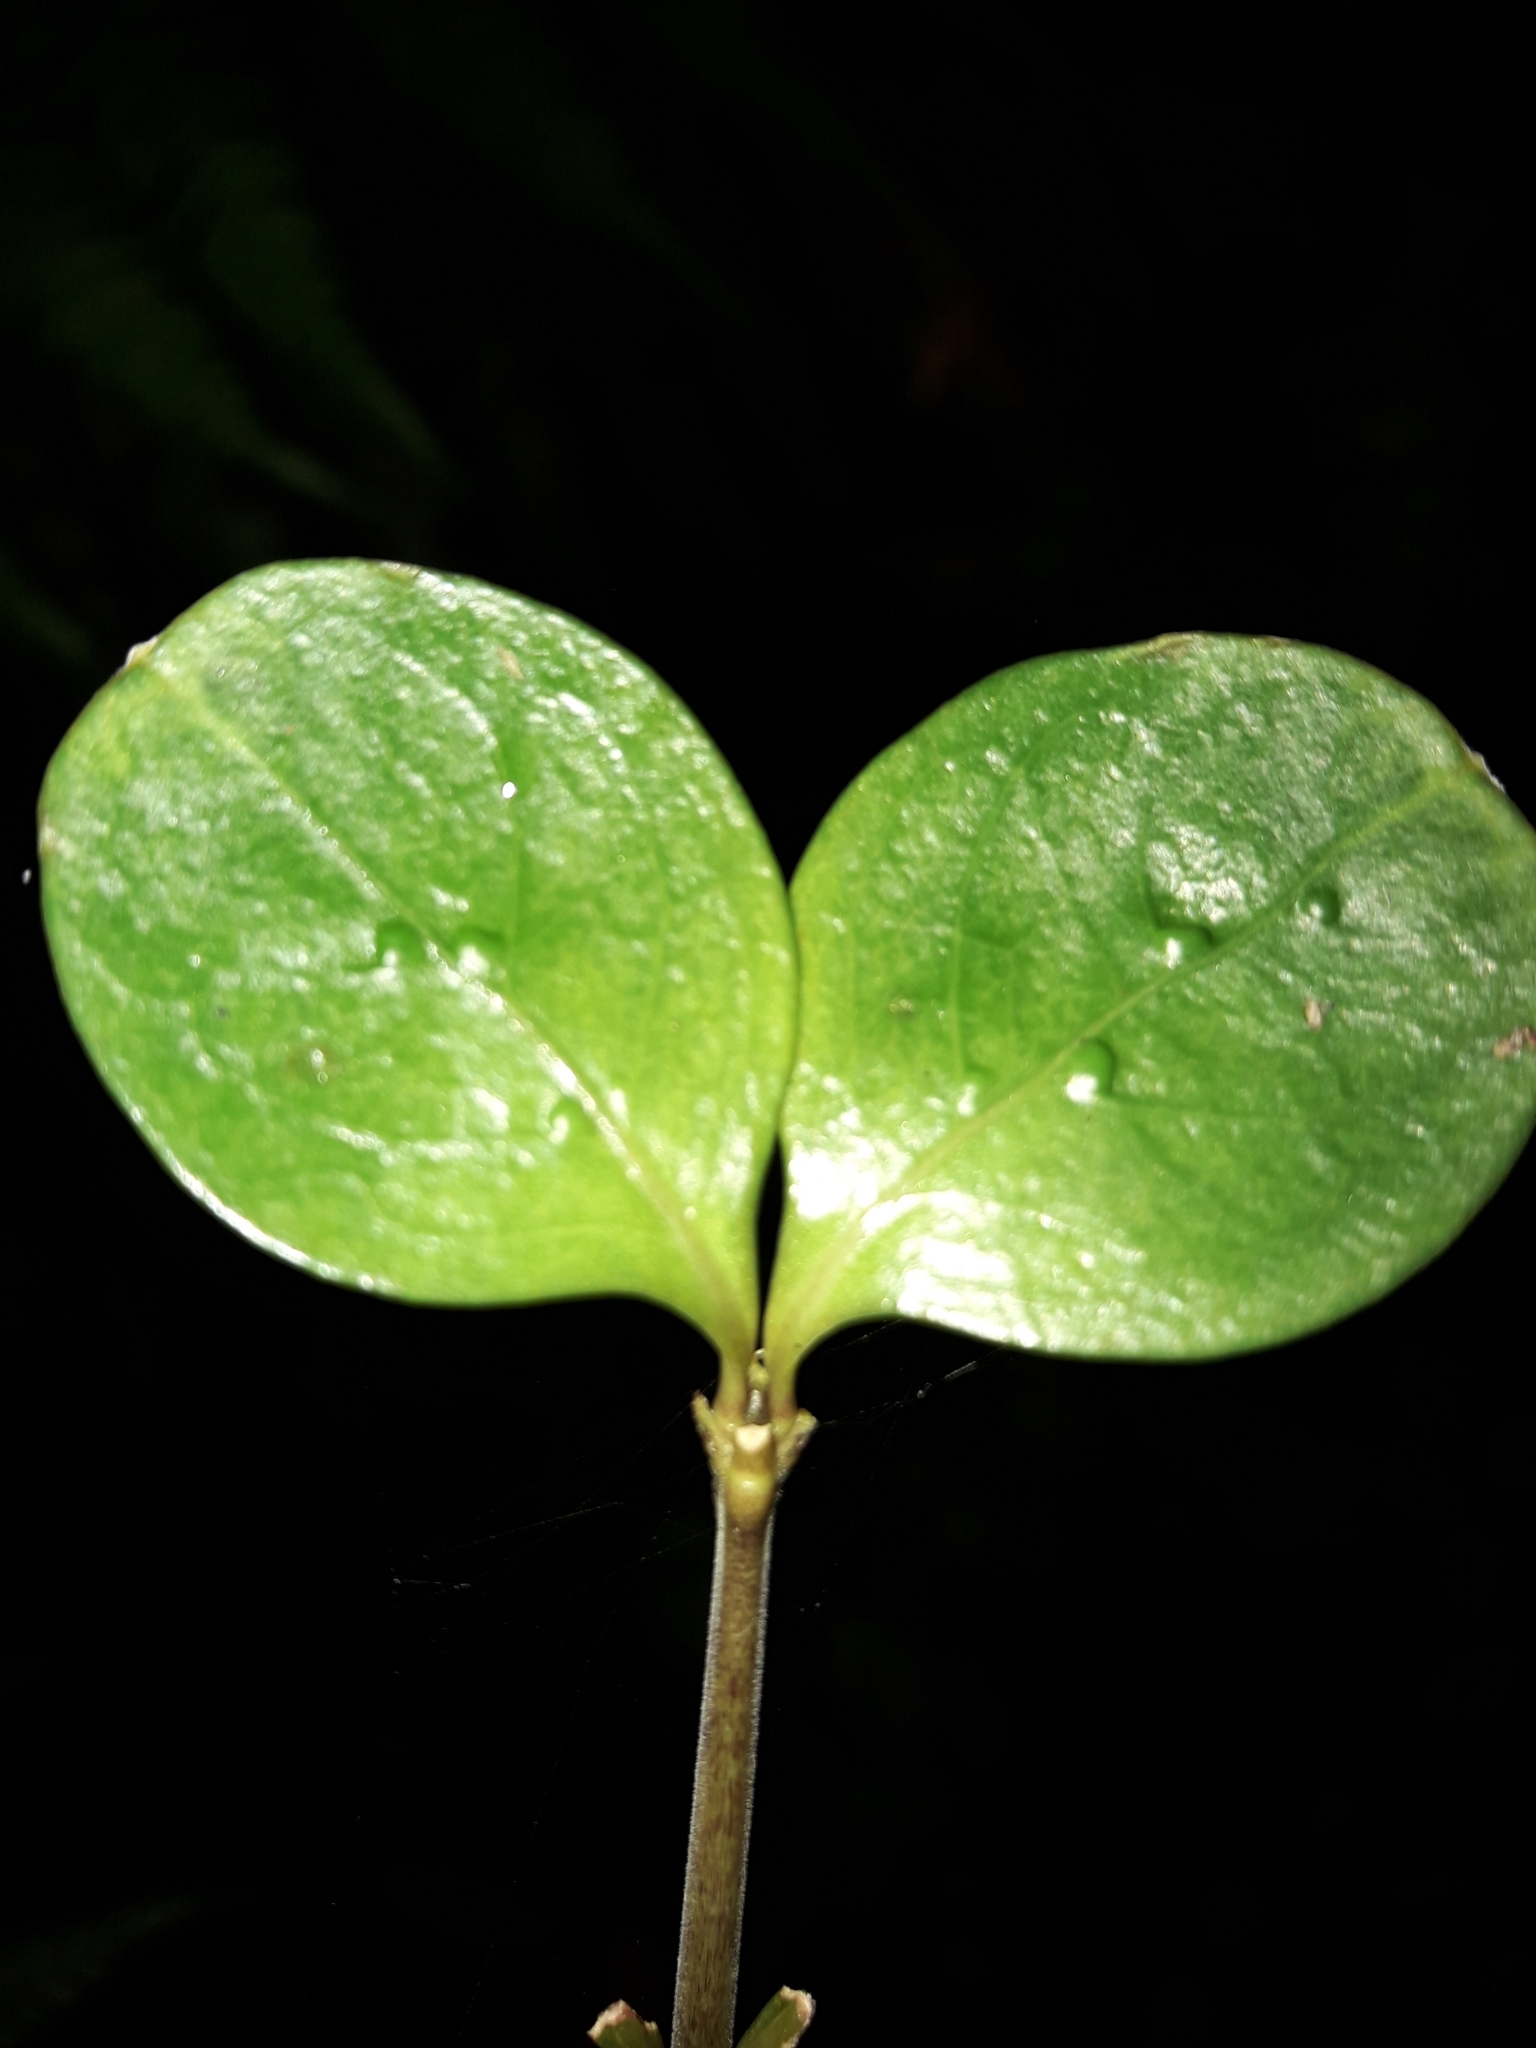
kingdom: Plantae
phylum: Tracheophyta
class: Magnoliopsida
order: Gentianales
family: Rubiaceae
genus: Coprosma
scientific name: Coprosma foetidissima
